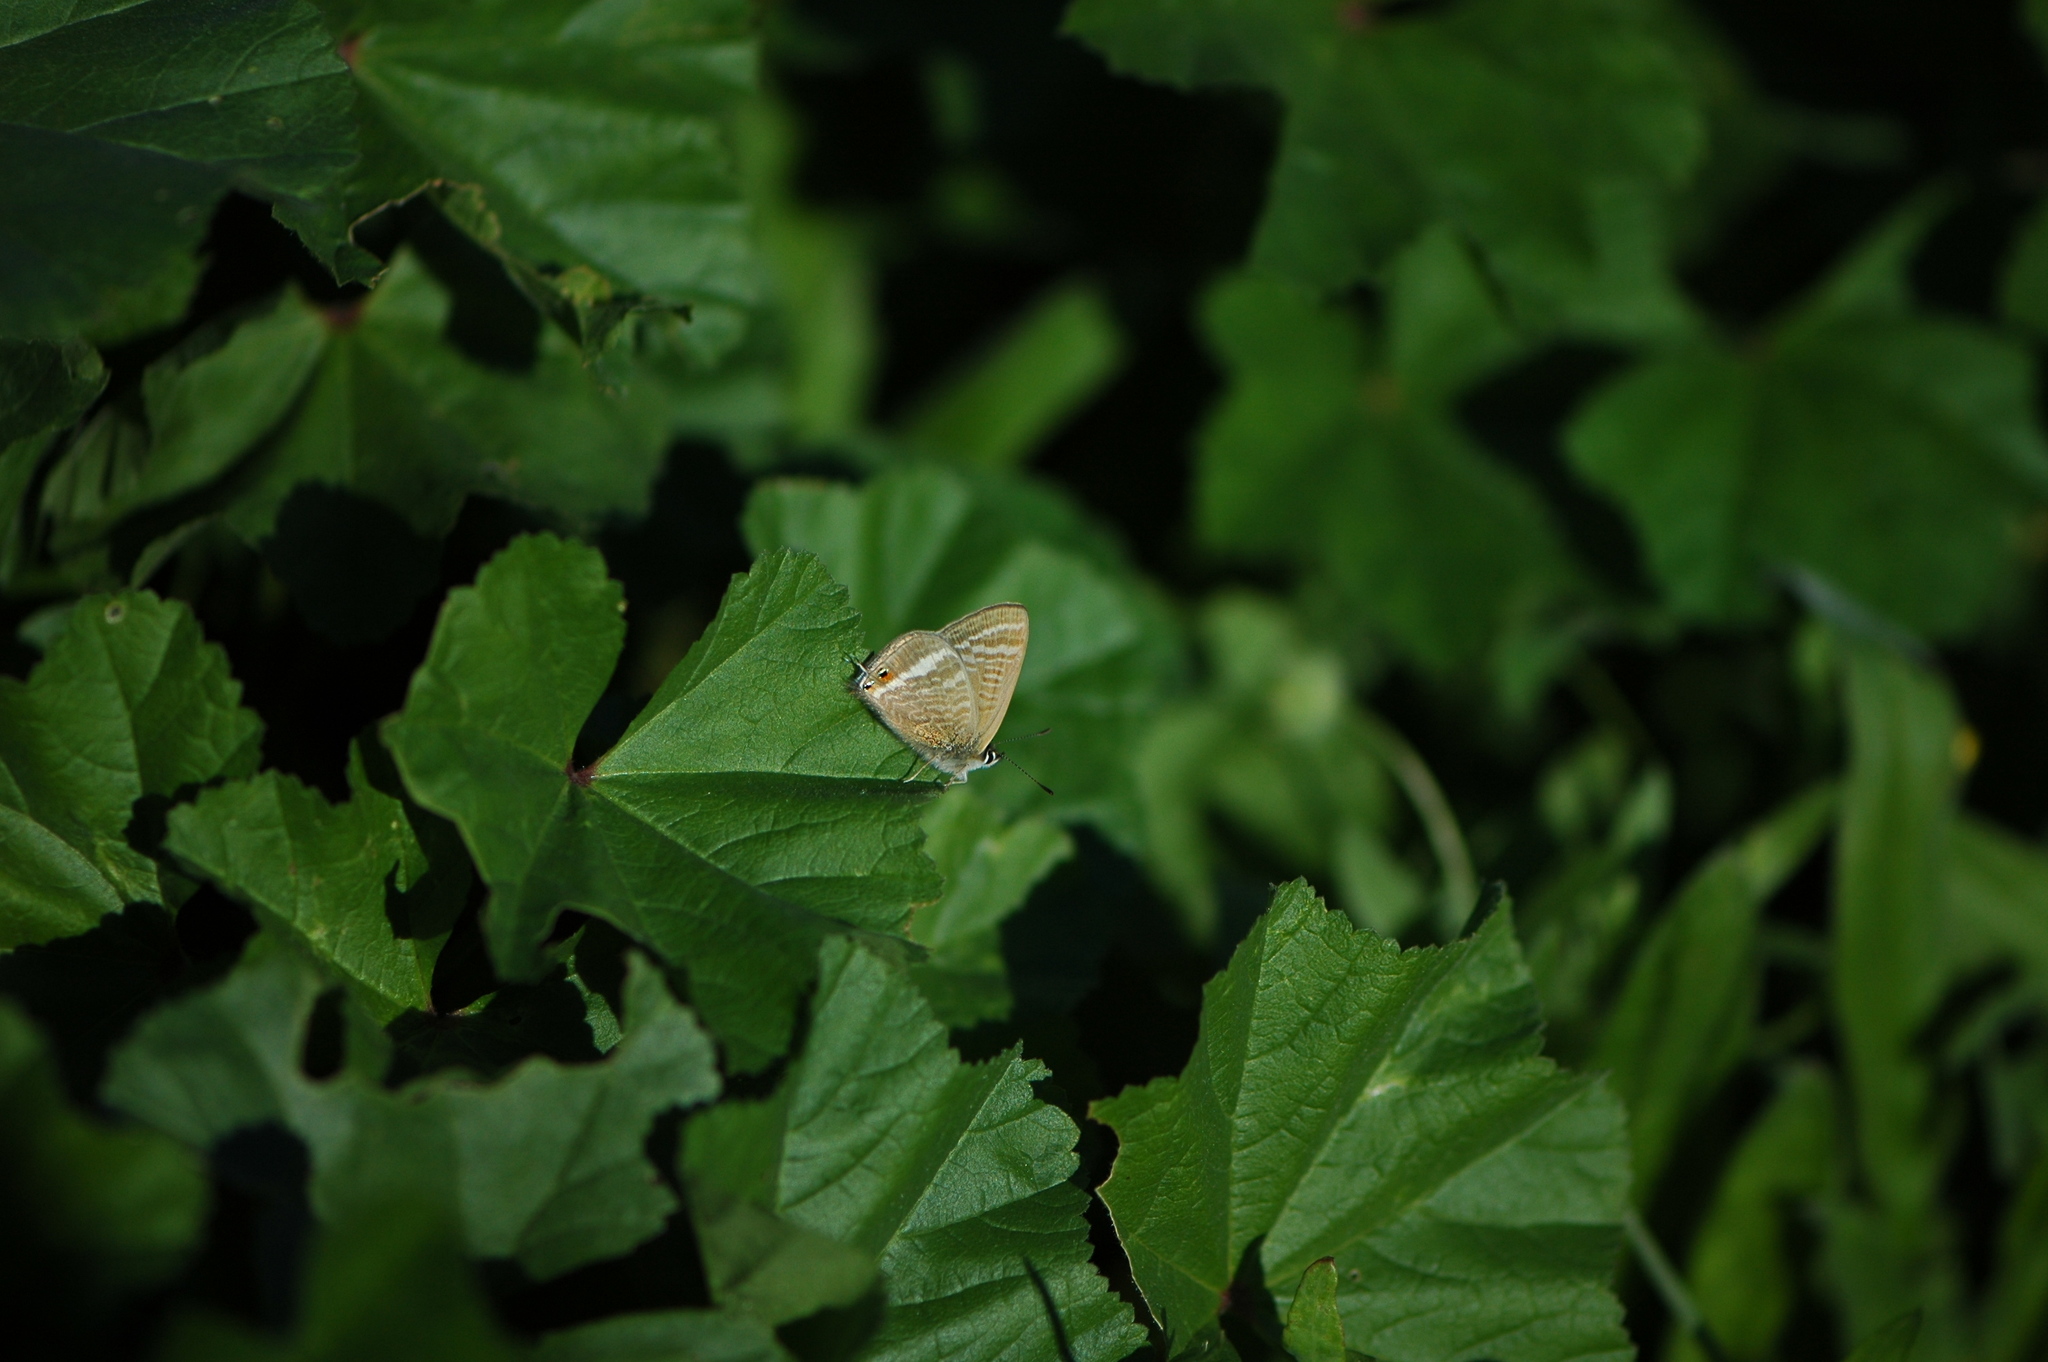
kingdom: Animalia
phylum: Arthropoda
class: Insecta
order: Lepidoptera
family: Lycaenidae
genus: Lampides
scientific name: Lampides boeticus
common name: Long-tailed blue
